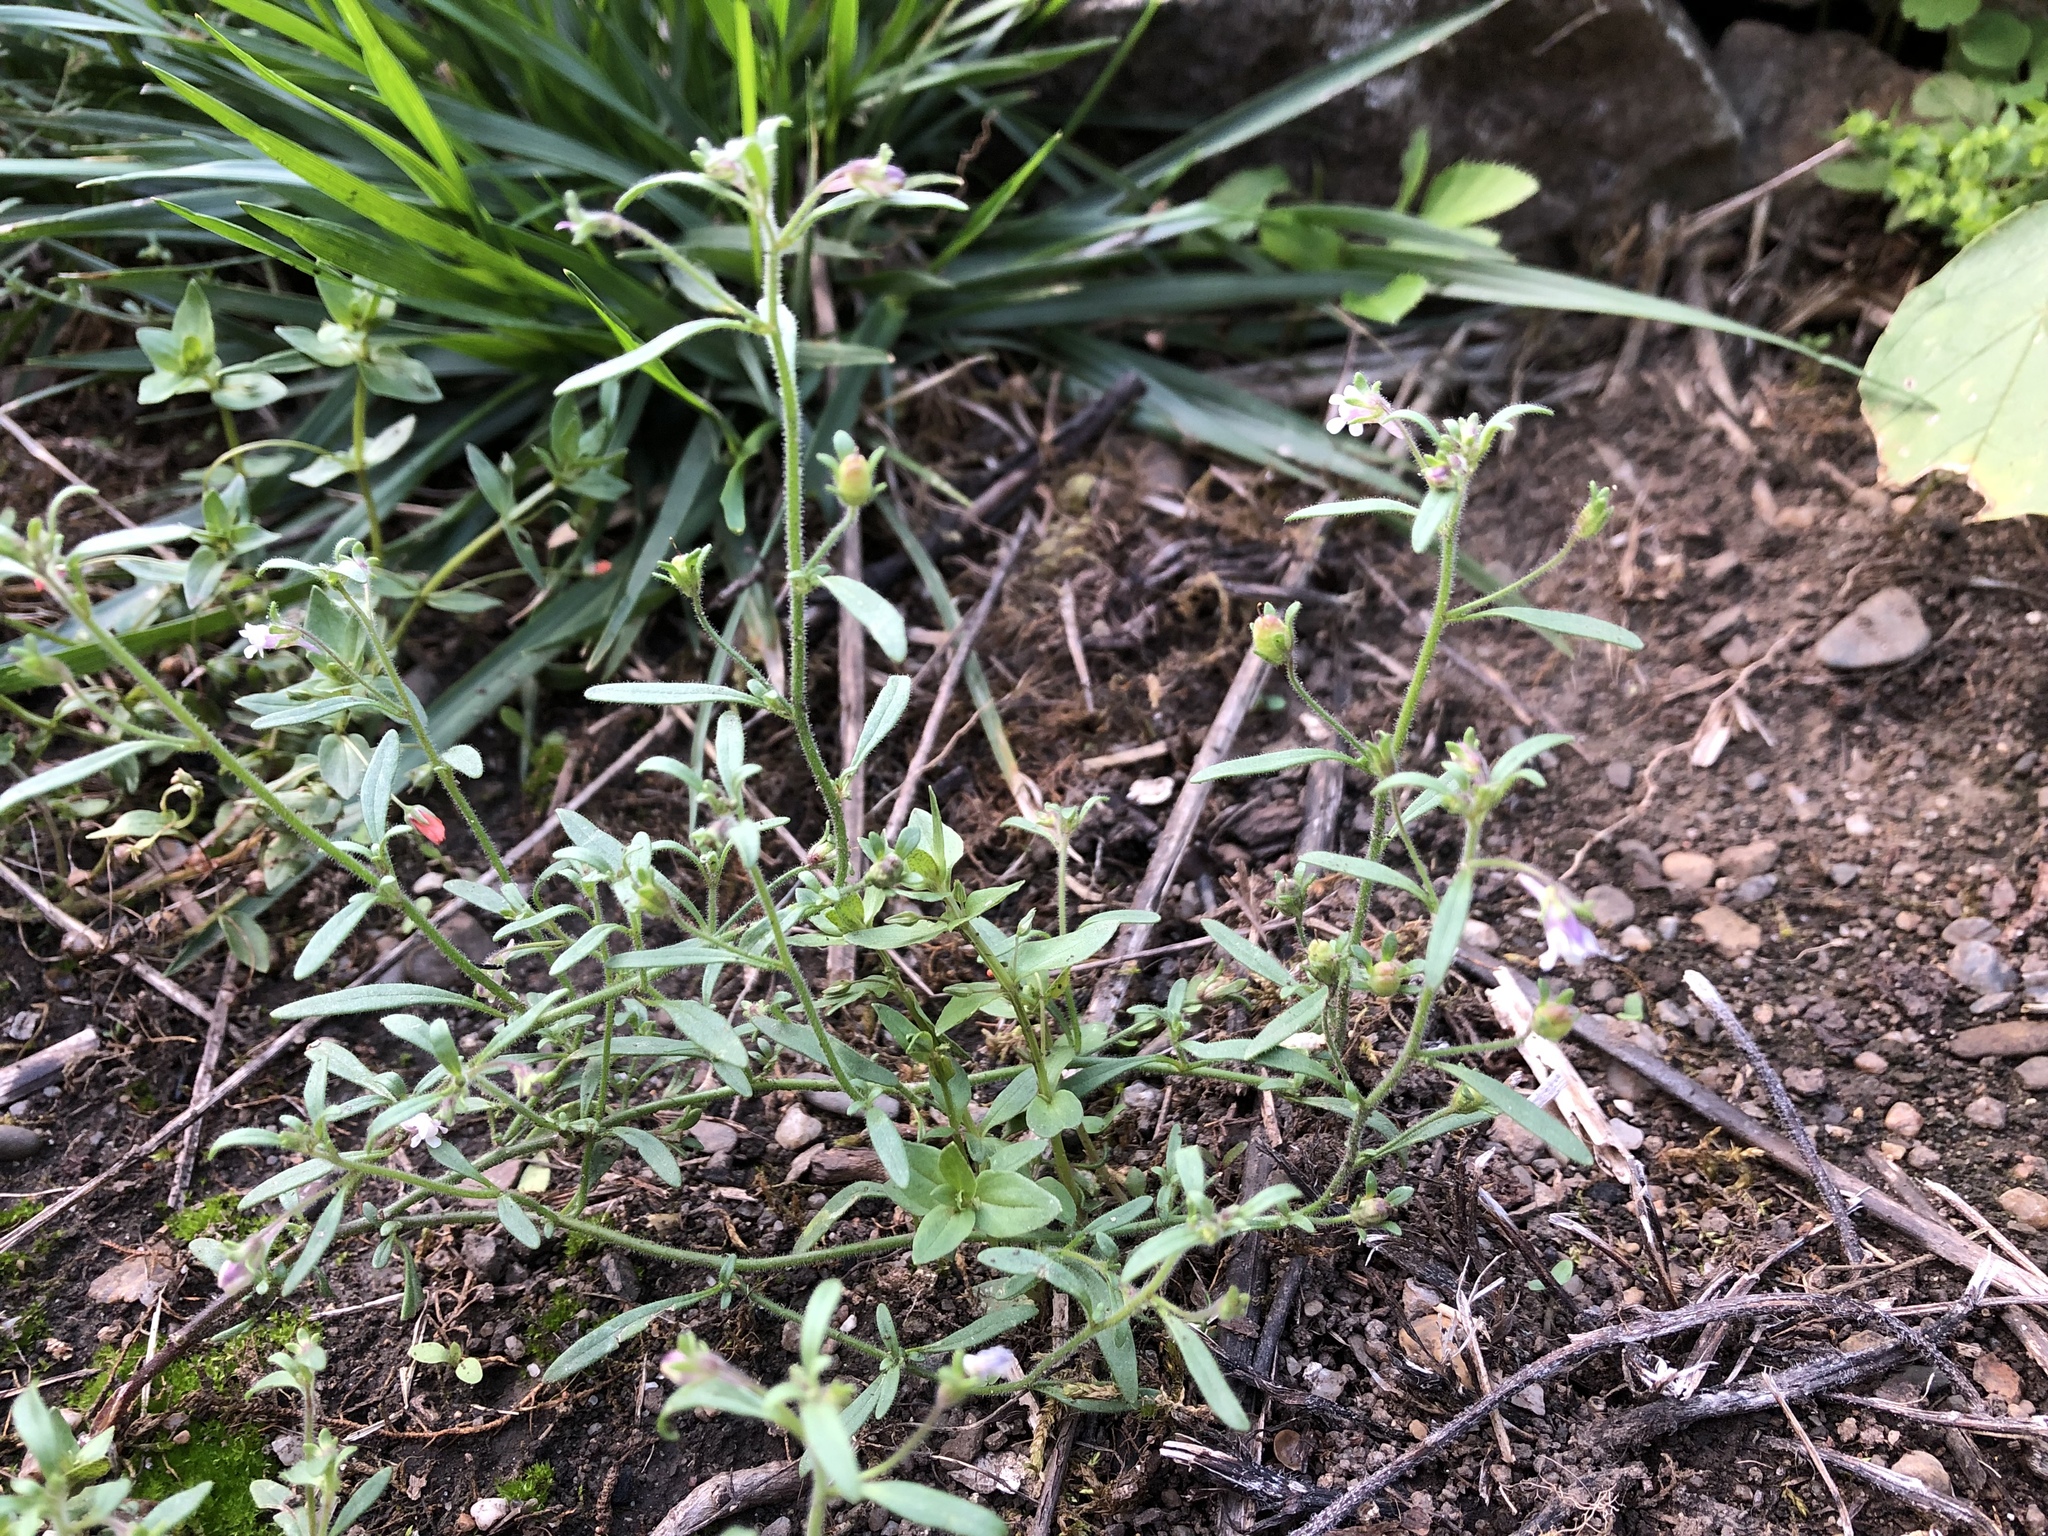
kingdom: Plantae
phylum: Tracheophyta
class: Magnoliopsida
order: Lamiales
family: Plantaginaceae
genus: Chaenorhinum
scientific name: Chaenorhinum minus
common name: Dwarf snapdragon
